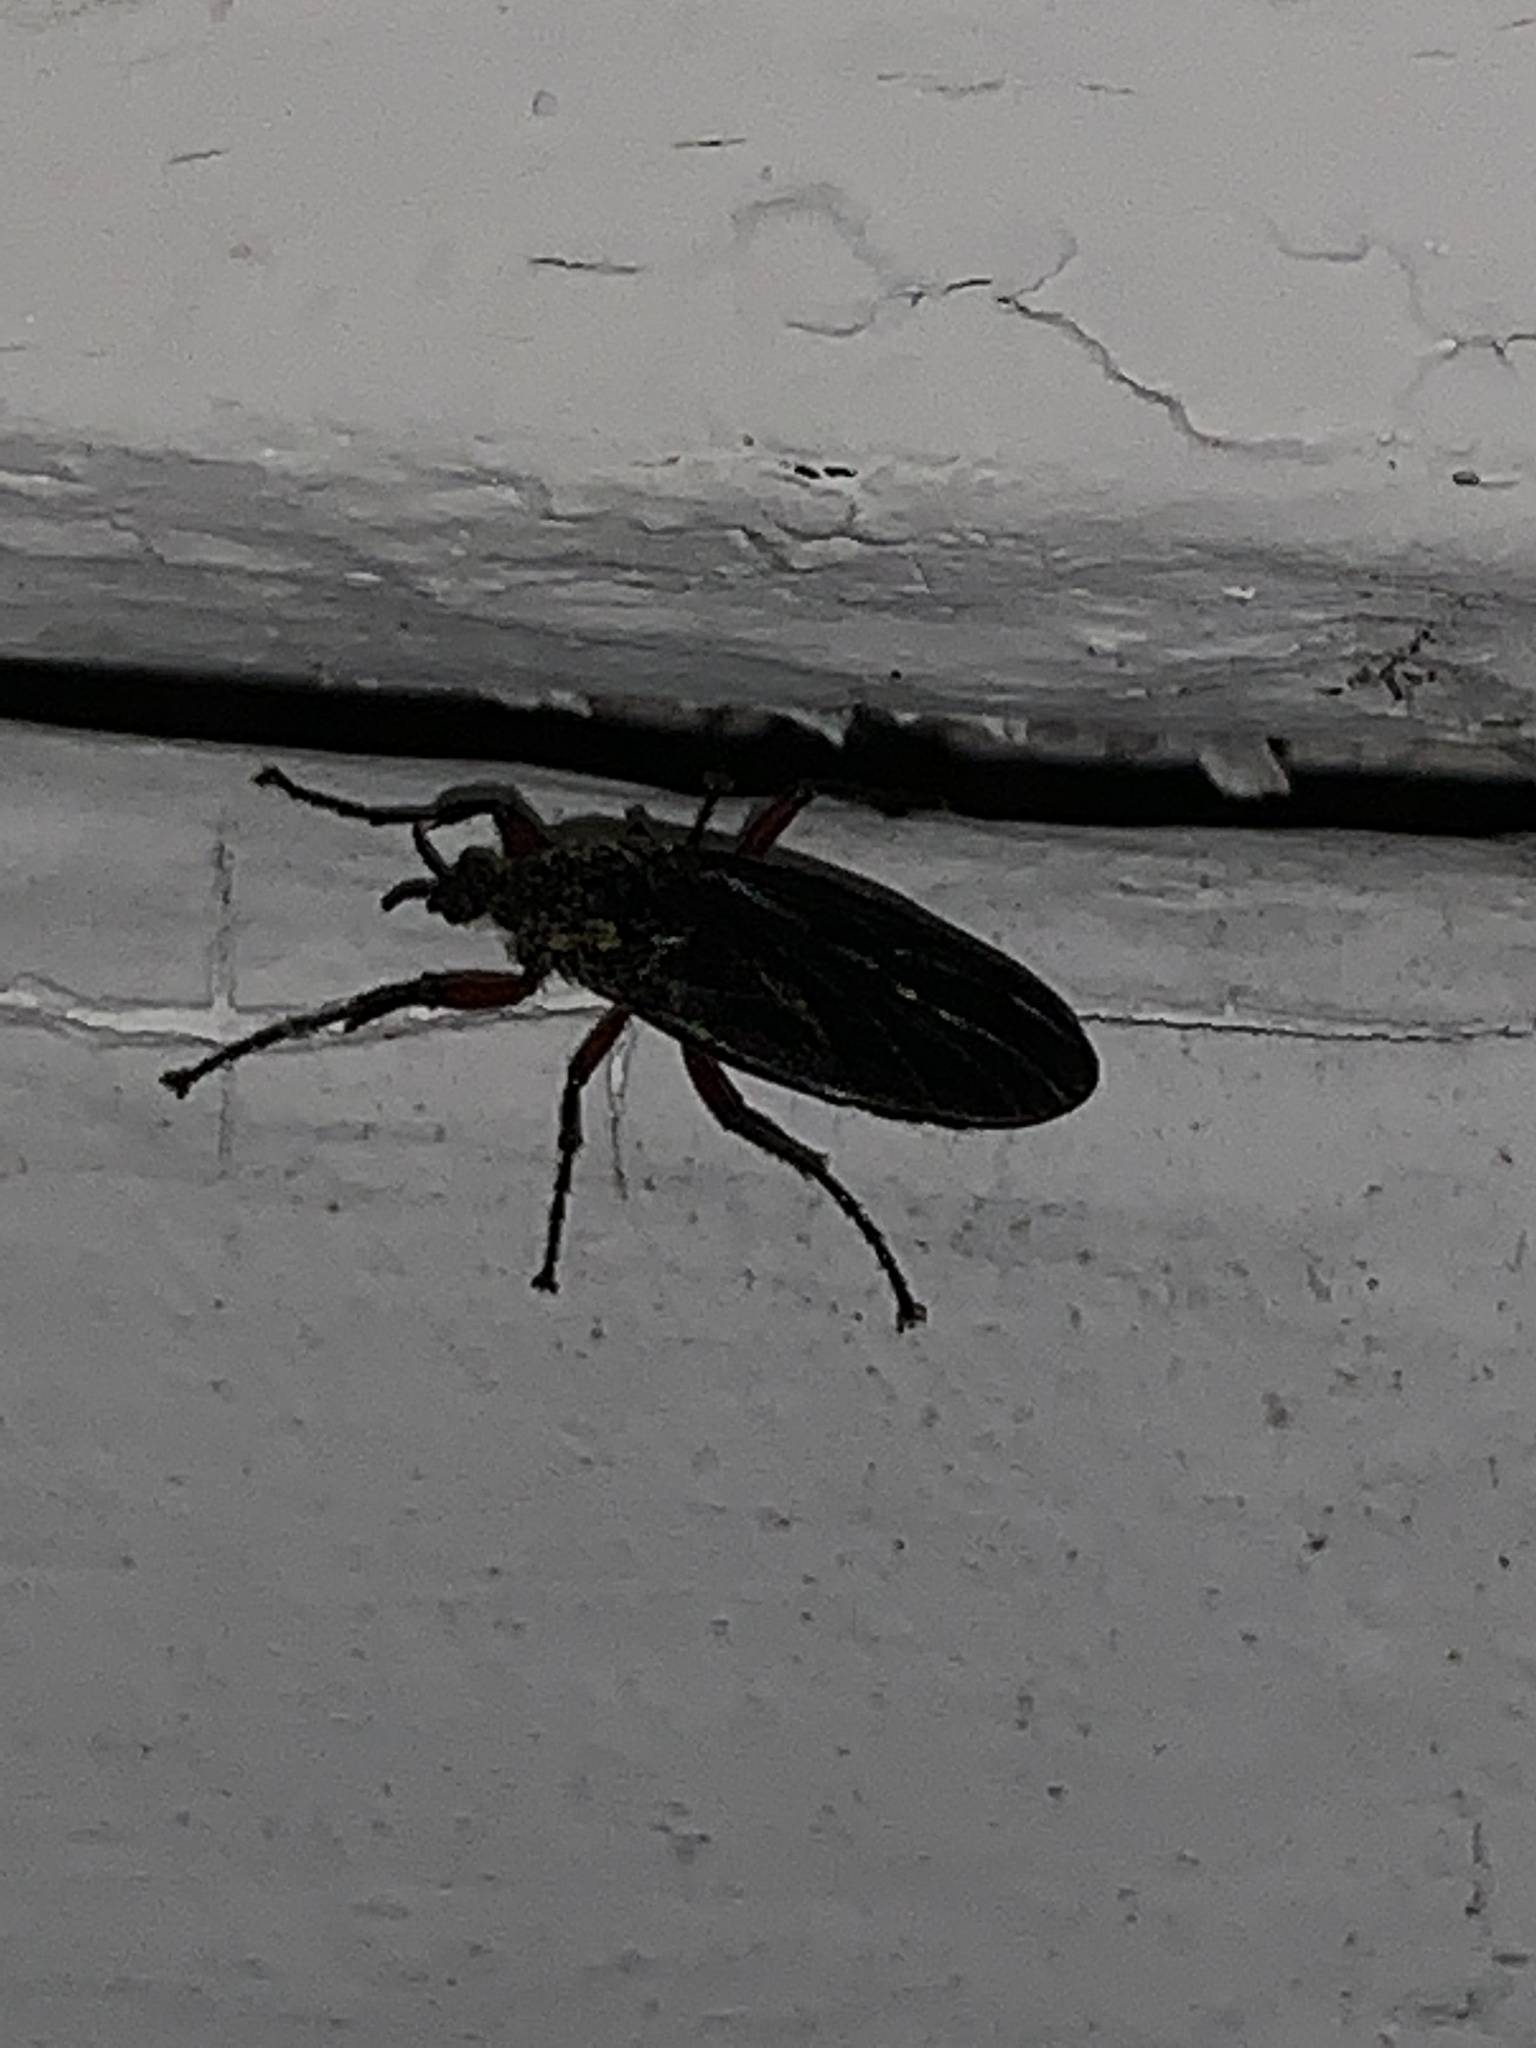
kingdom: Animalia
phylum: Arthropoda
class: Insecta
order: Diptera
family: Bibionidae
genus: Bibio
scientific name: Bibio
